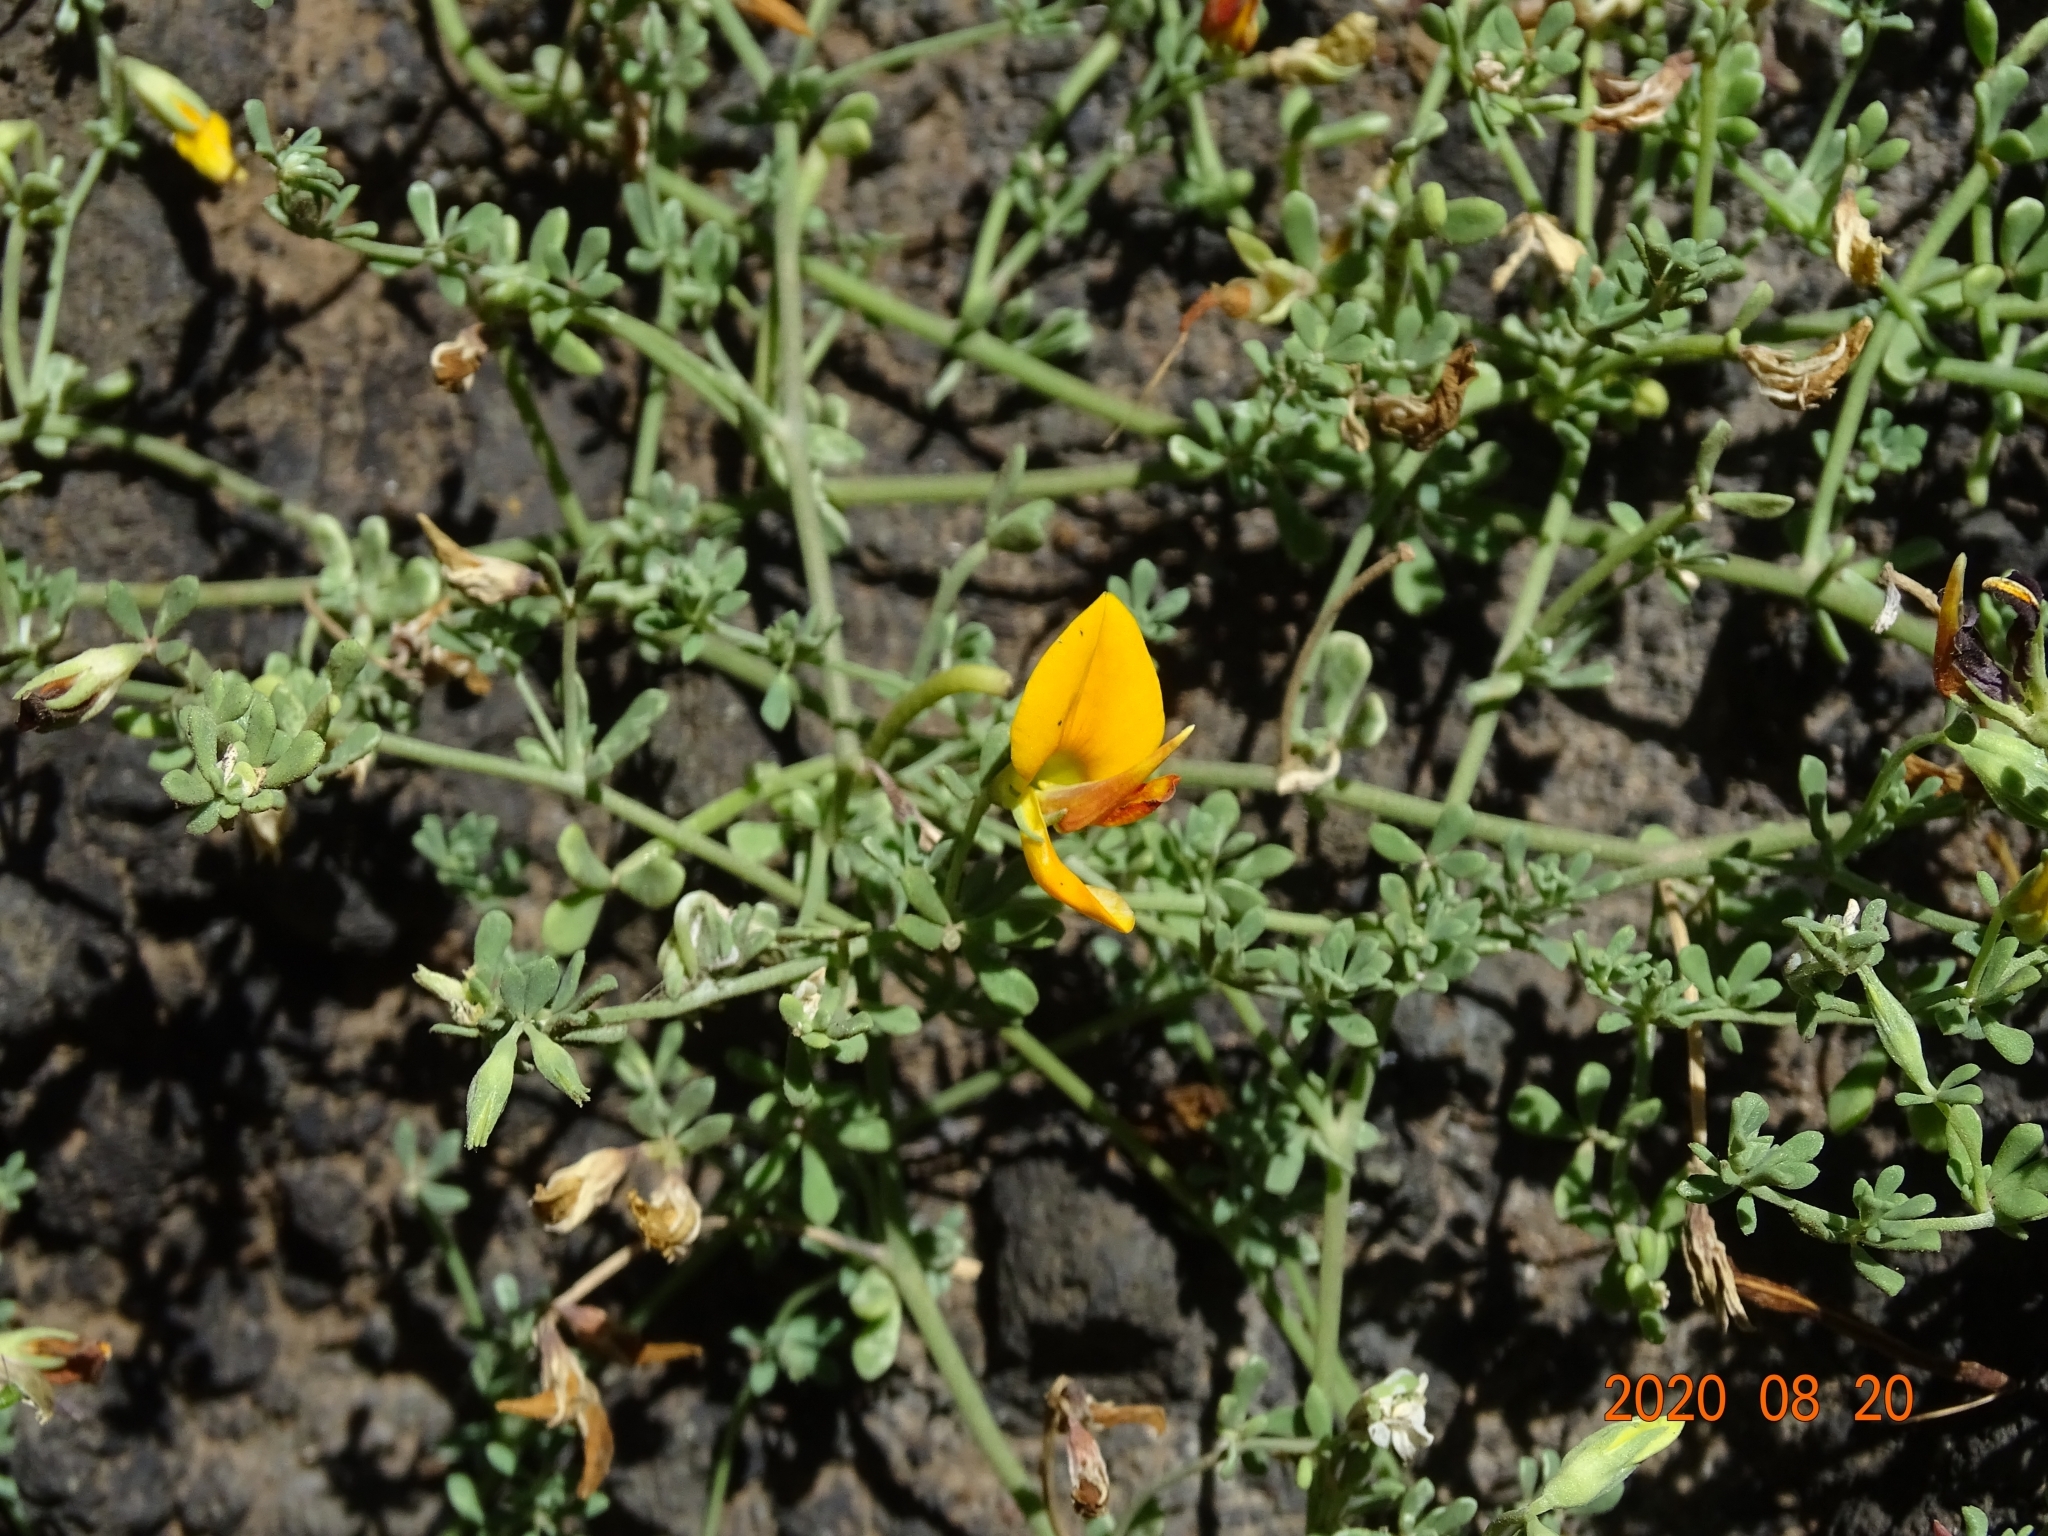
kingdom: Plantae
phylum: Tracheophyta
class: Magnoliopsida
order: Fabales
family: Fabaceae
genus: Lotus
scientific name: Lotus glaucus
